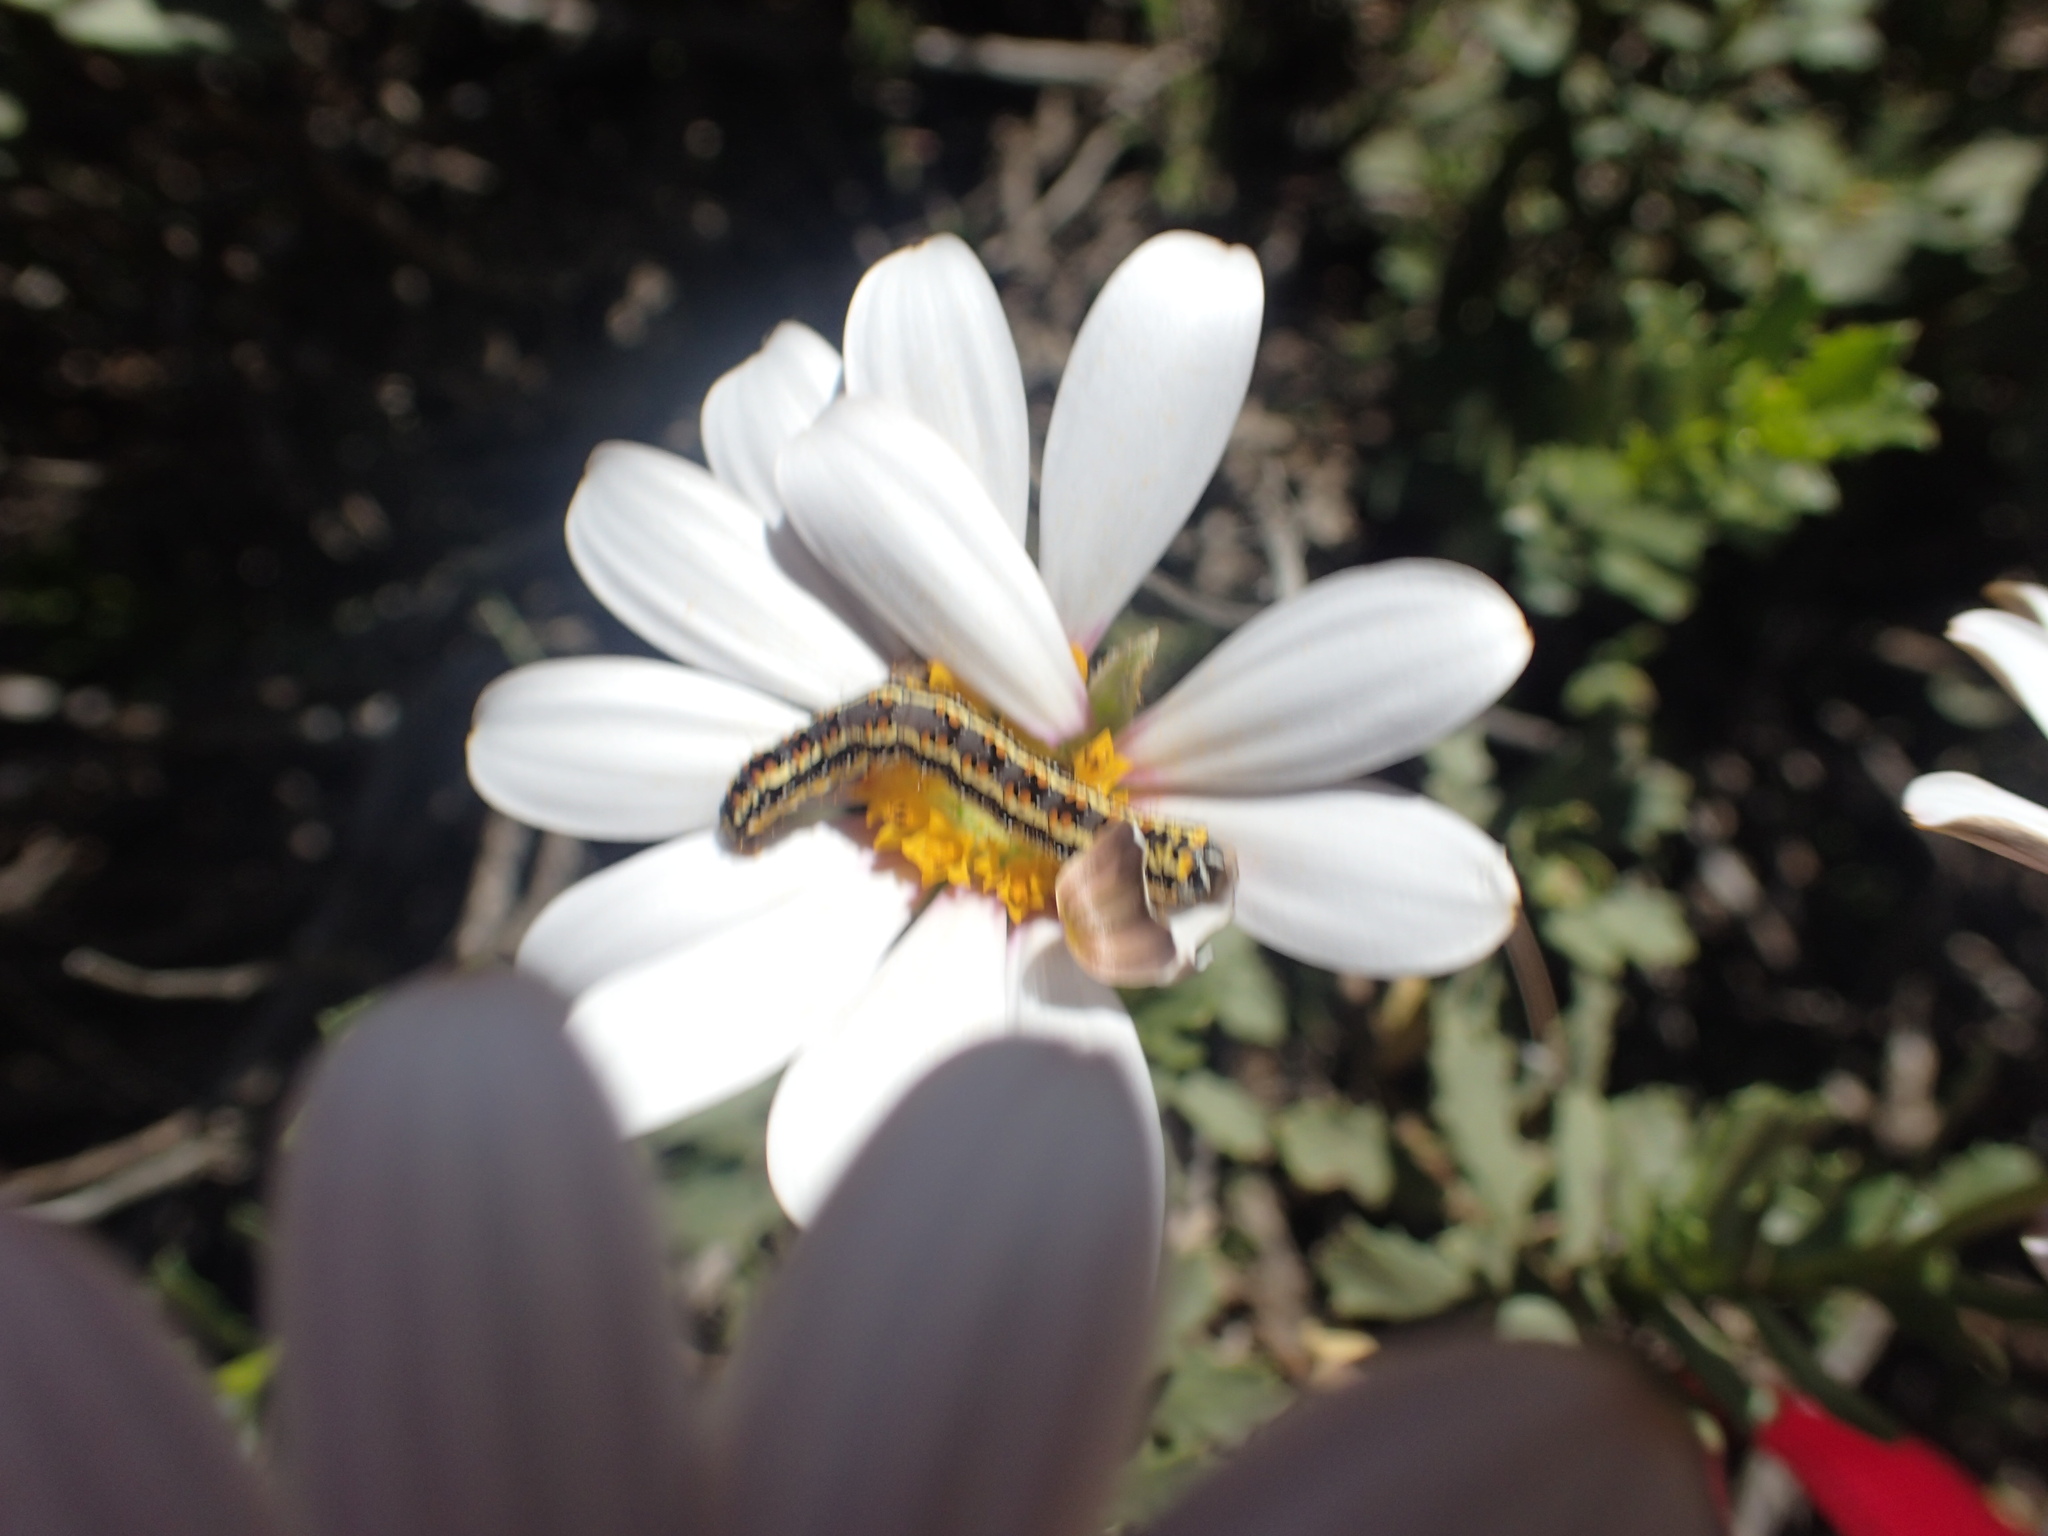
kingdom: Plantae
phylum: Tracheophyta
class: Magnoliopsida
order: Asterales
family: Asteraceae
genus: Dimorphotheca
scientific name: Dimorphotheca cuneata
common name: Daisy
